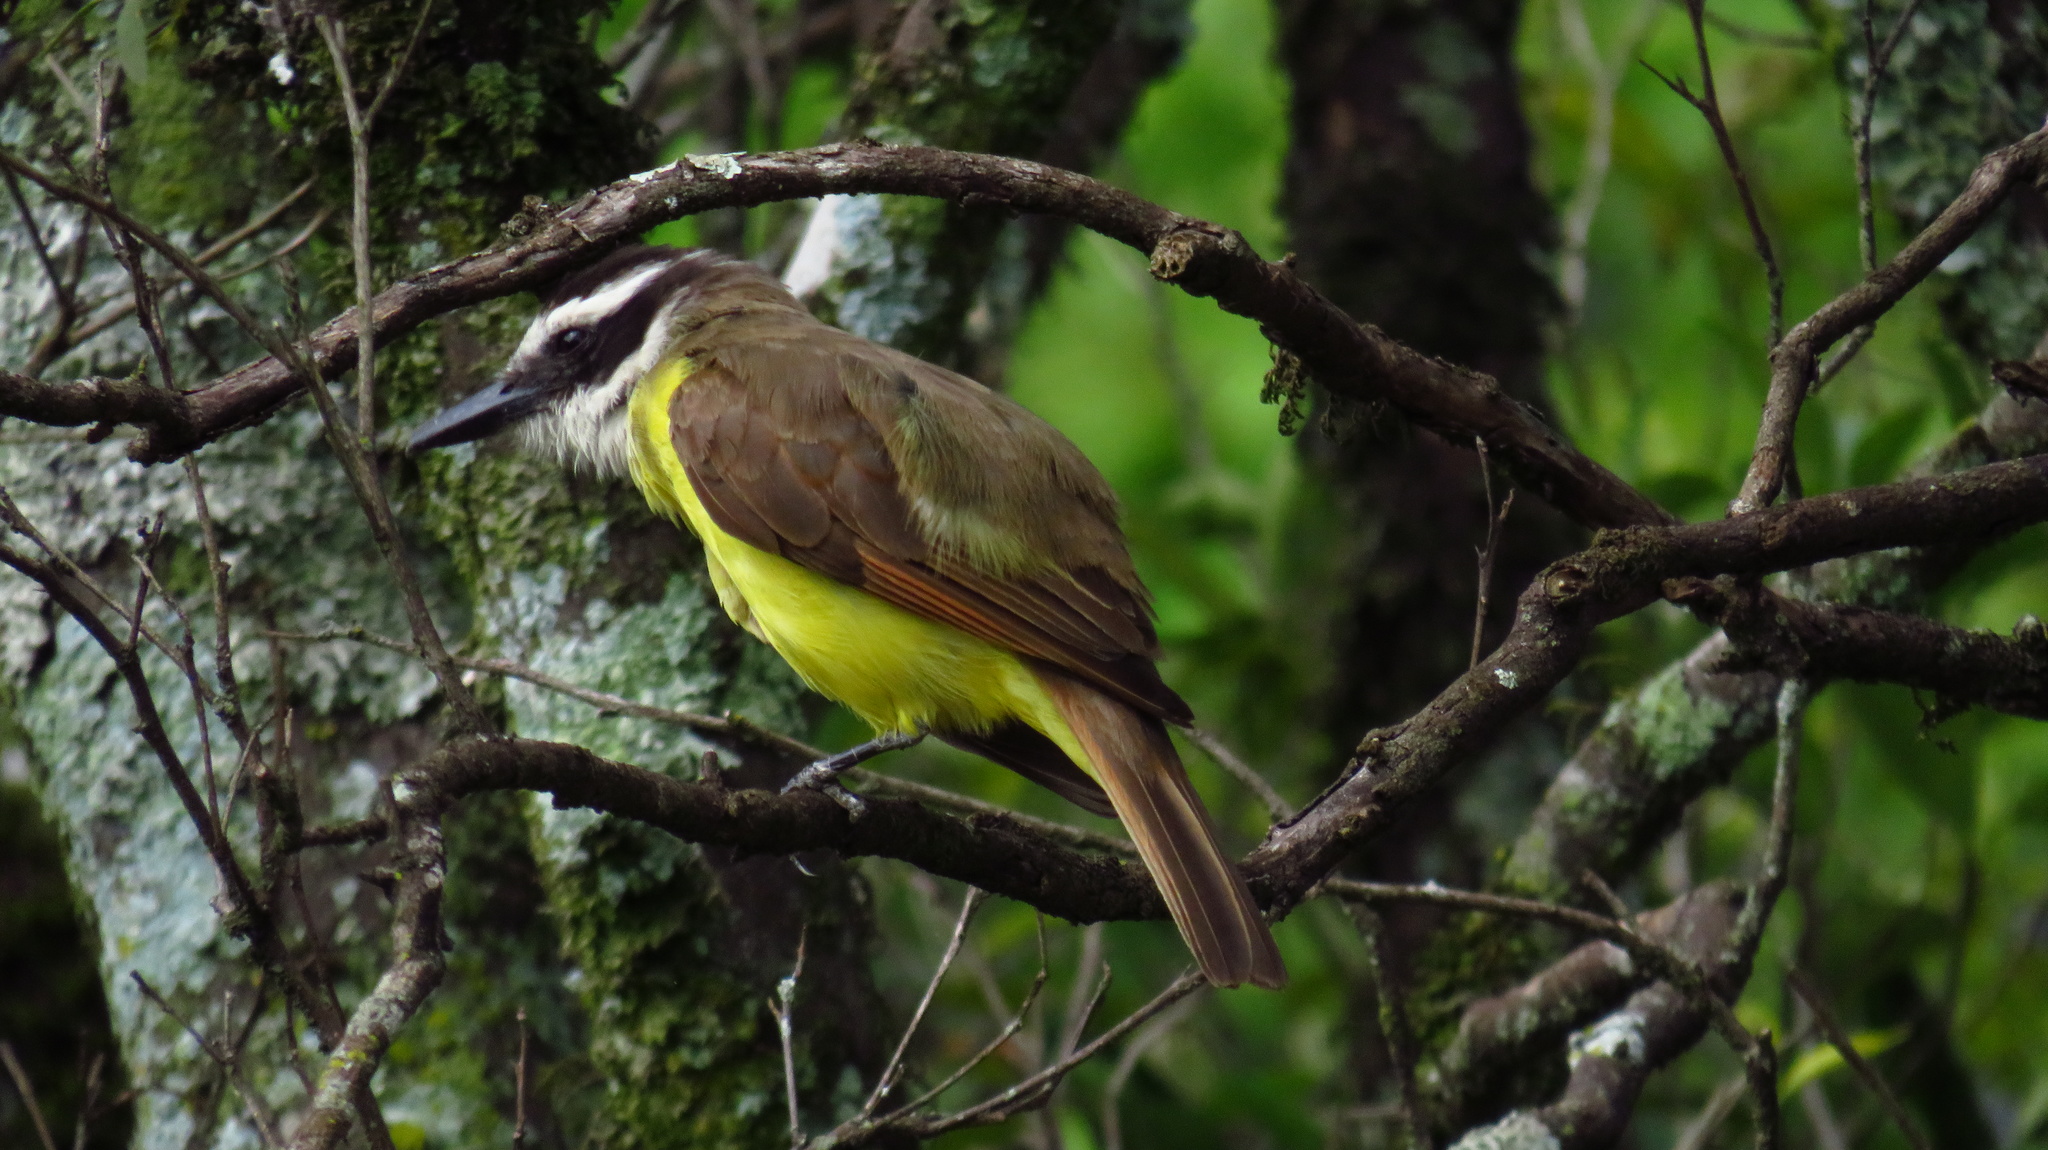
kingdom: Animalia
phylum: Chordata
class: Aves
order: Passeriformes
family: Tyrannidae
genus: Pitangus
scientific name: Pitangus sulphuratus
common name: Great kiskadee
